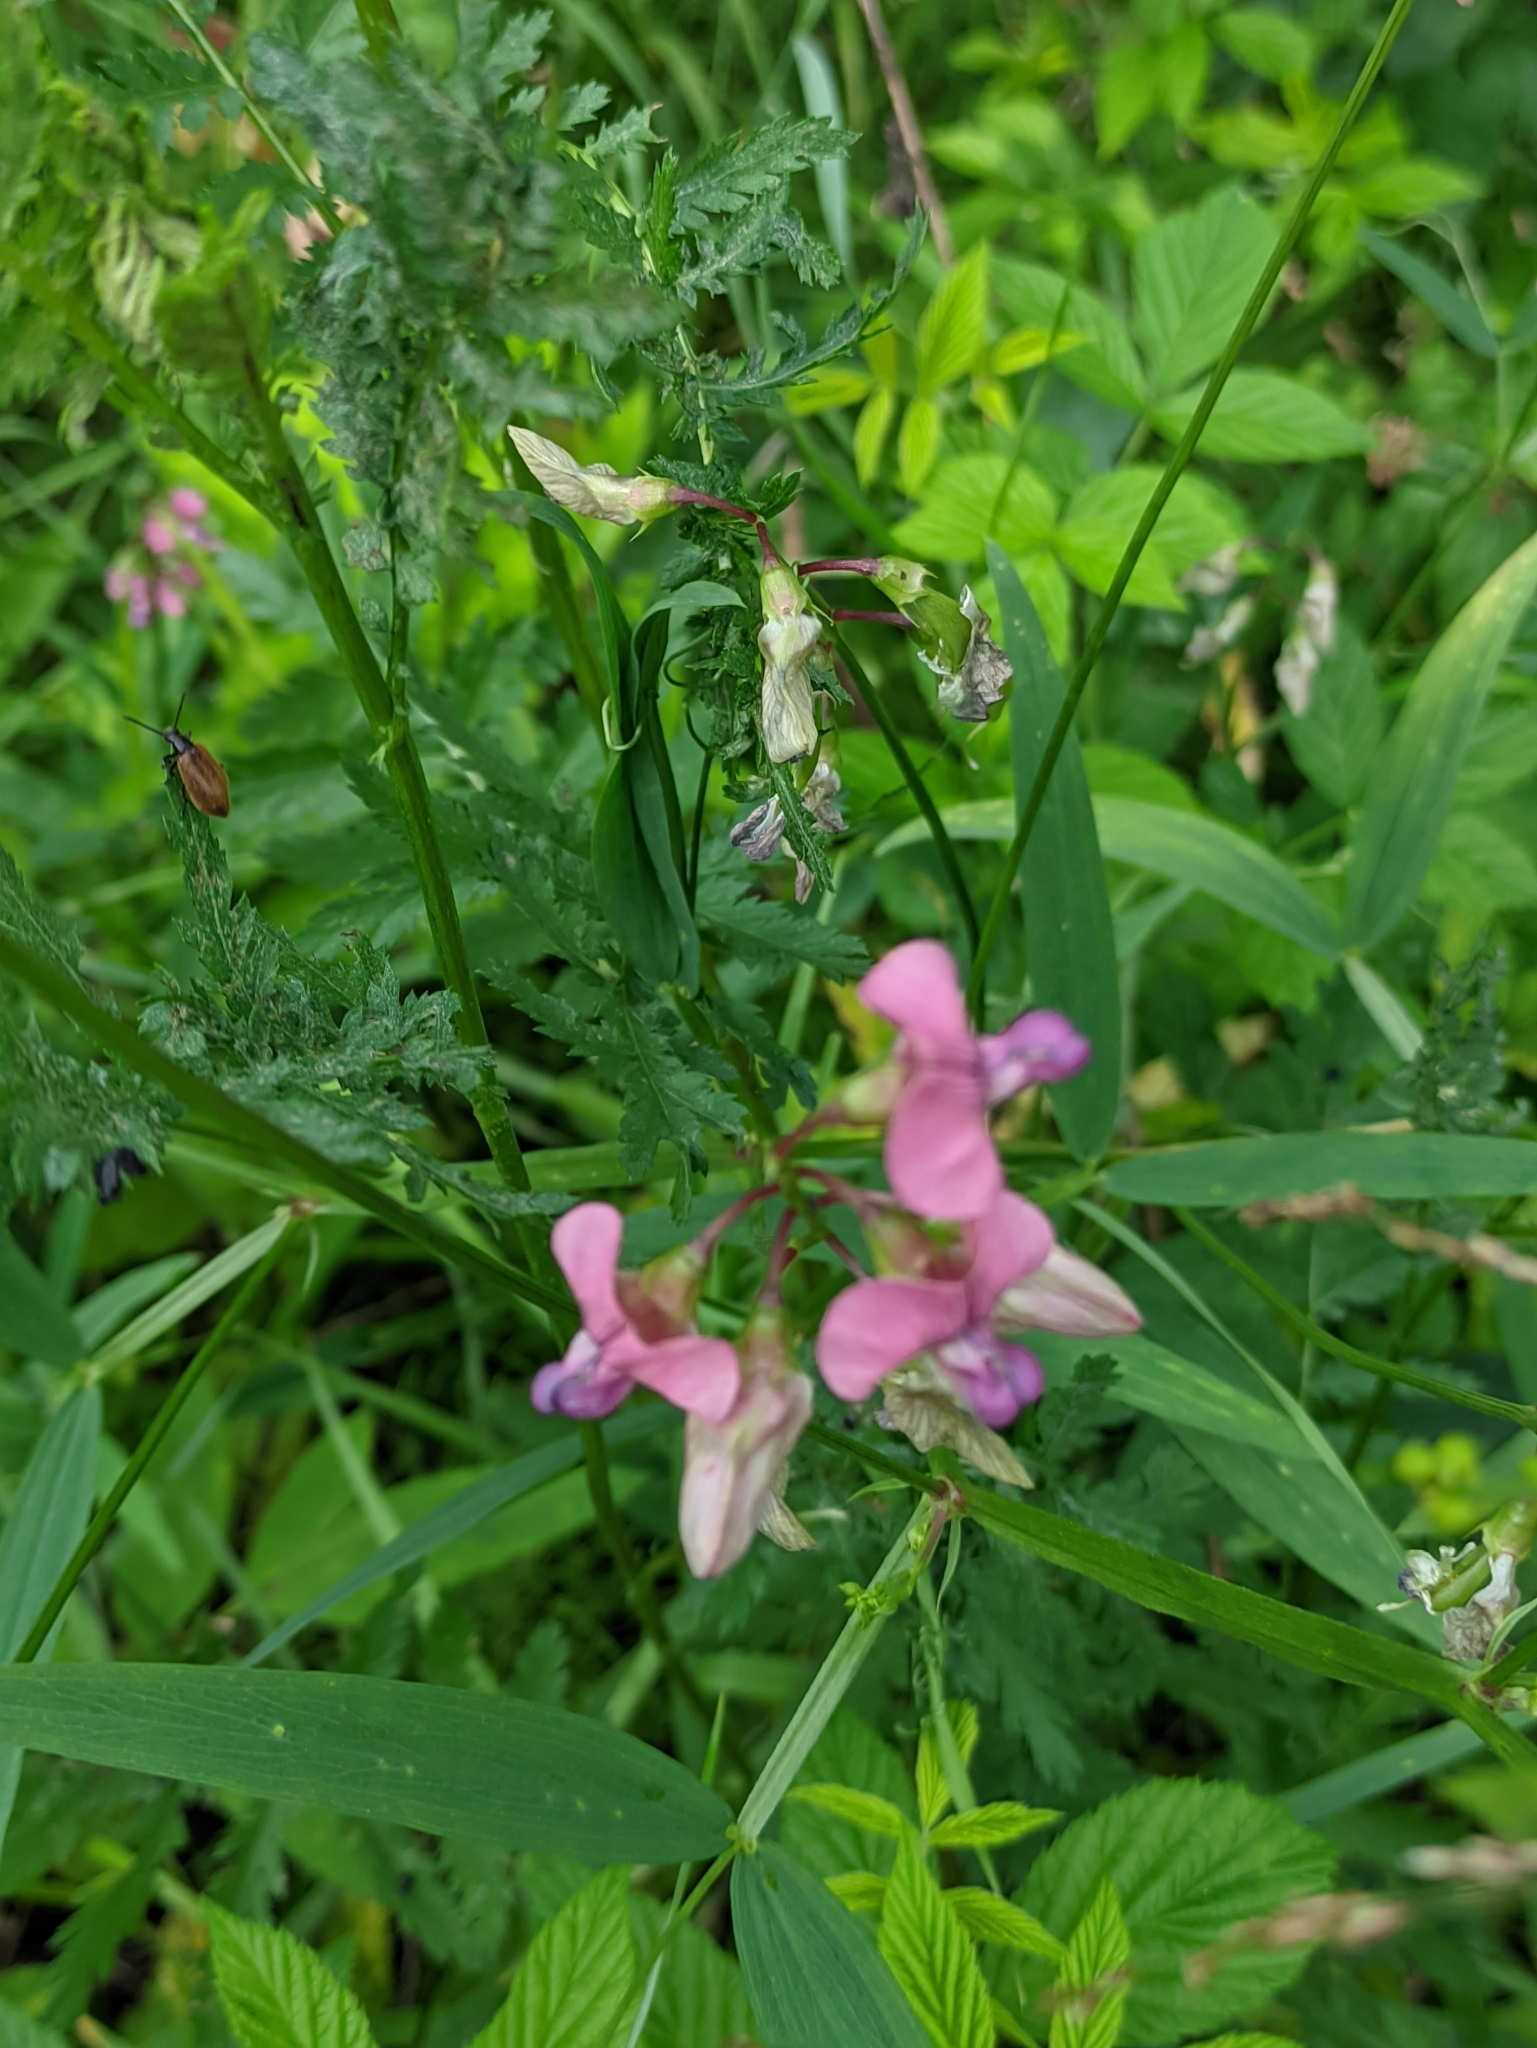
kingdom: Plantae
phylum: Tracheophyta
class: Magnoliopsida
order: Fabales
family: Fabaceae
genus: Lathyrus
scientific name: Lathyrus sylvestris
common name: Flat pea
